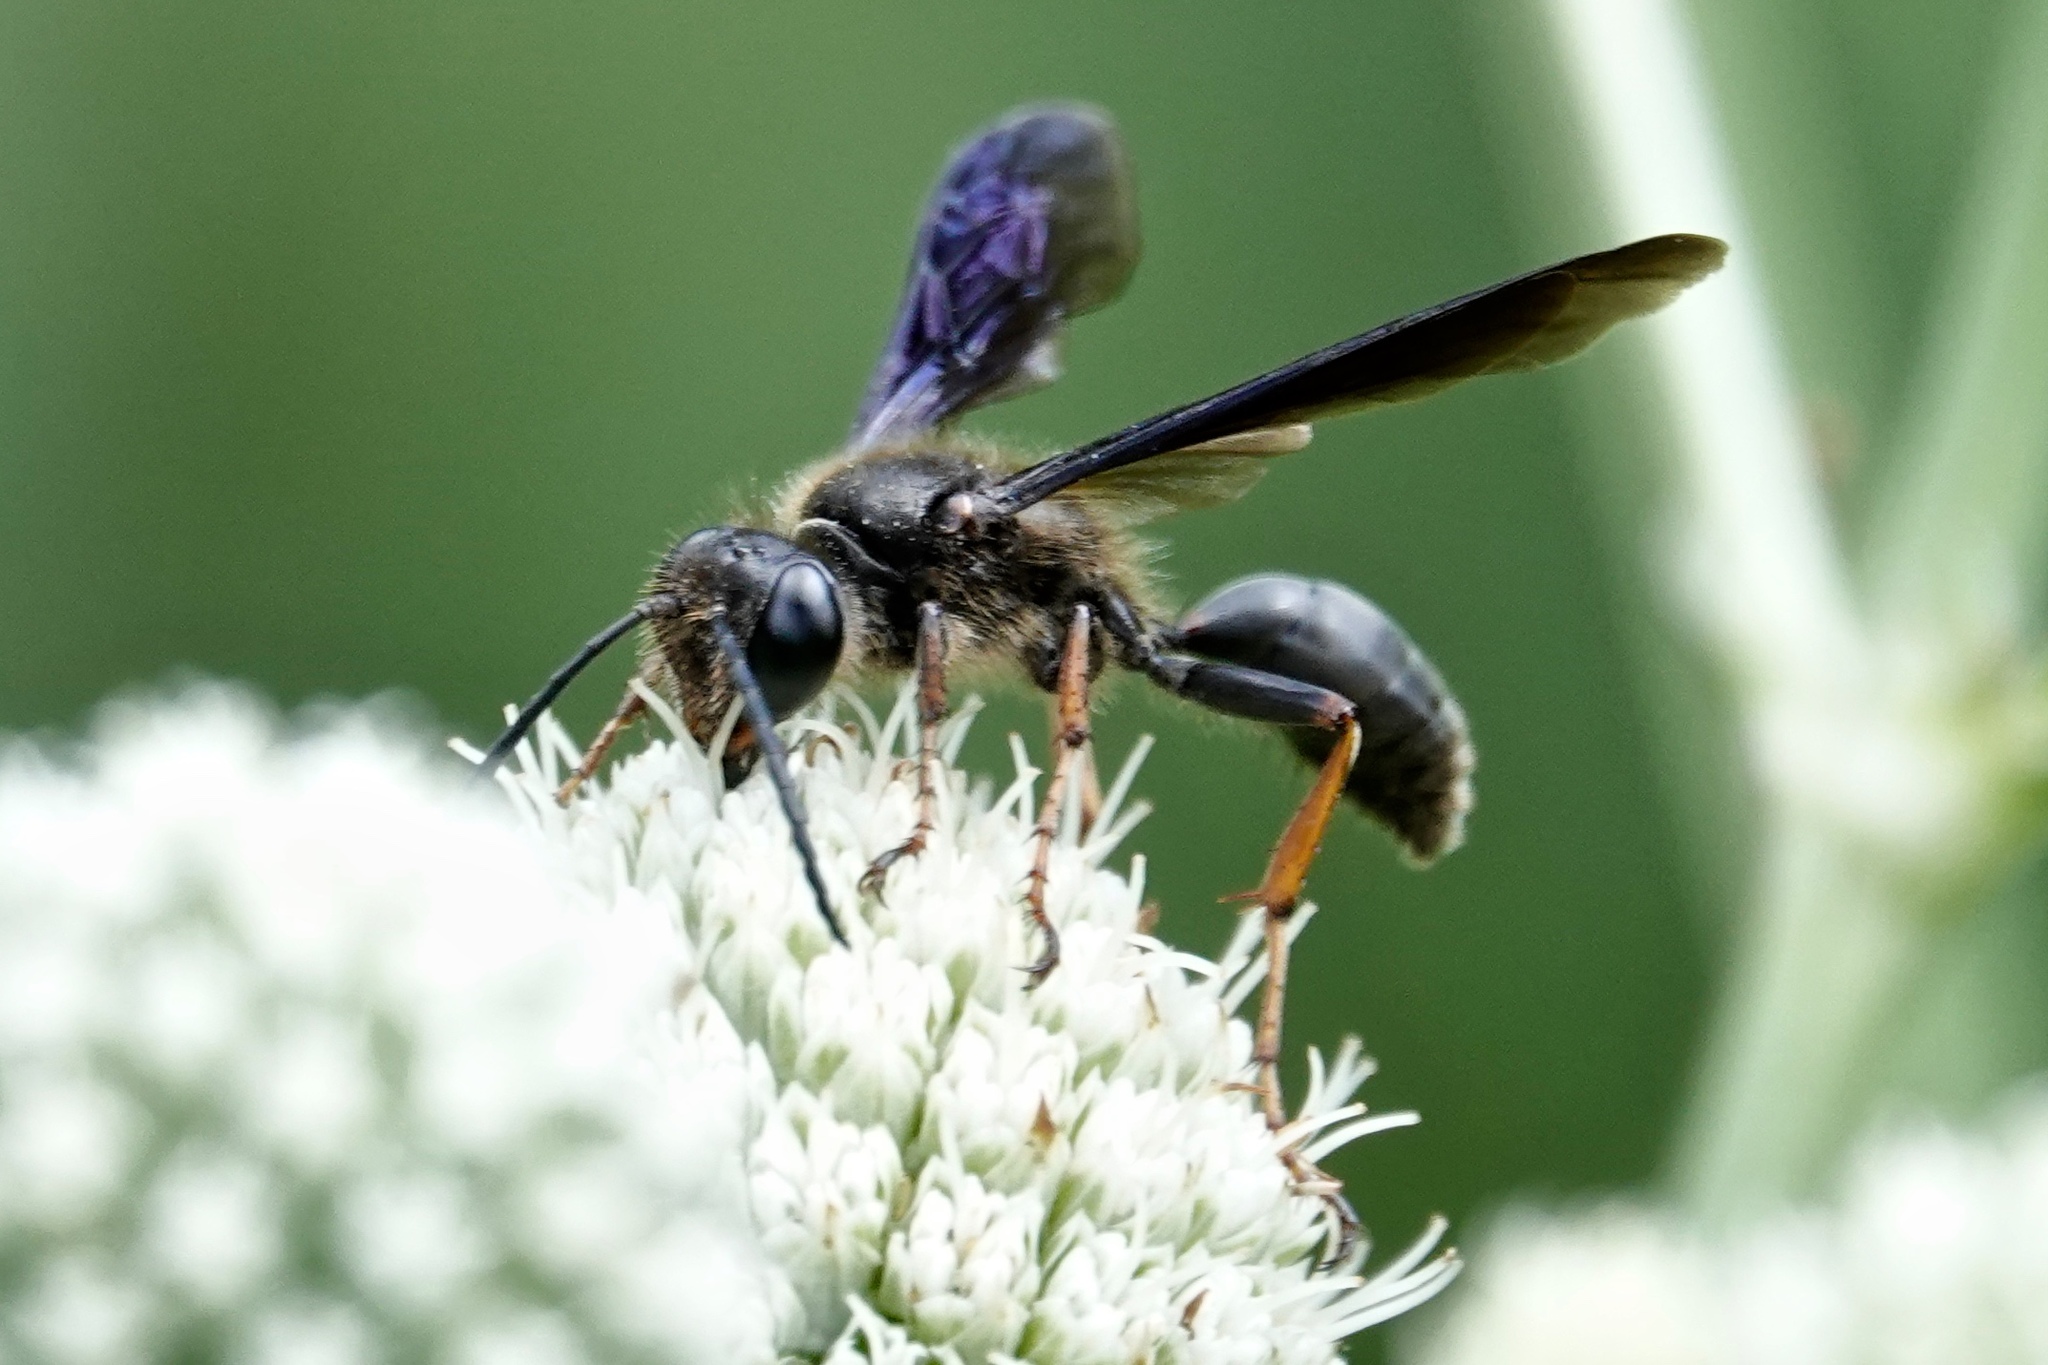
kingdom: Animalia
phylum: Arthropoda
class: Insecta
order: Hymenoptera
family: Sphecidae
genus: Isodontia
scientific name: Isodontia auripes
